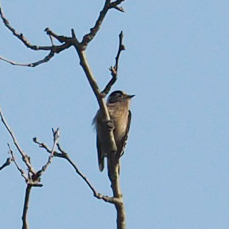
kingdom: Animalia
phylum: Chordata
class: Aves
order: Piciformes
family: Picidae
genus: Dryobates
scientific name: Dryobates minor
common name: Lesser spotted woodpecker
